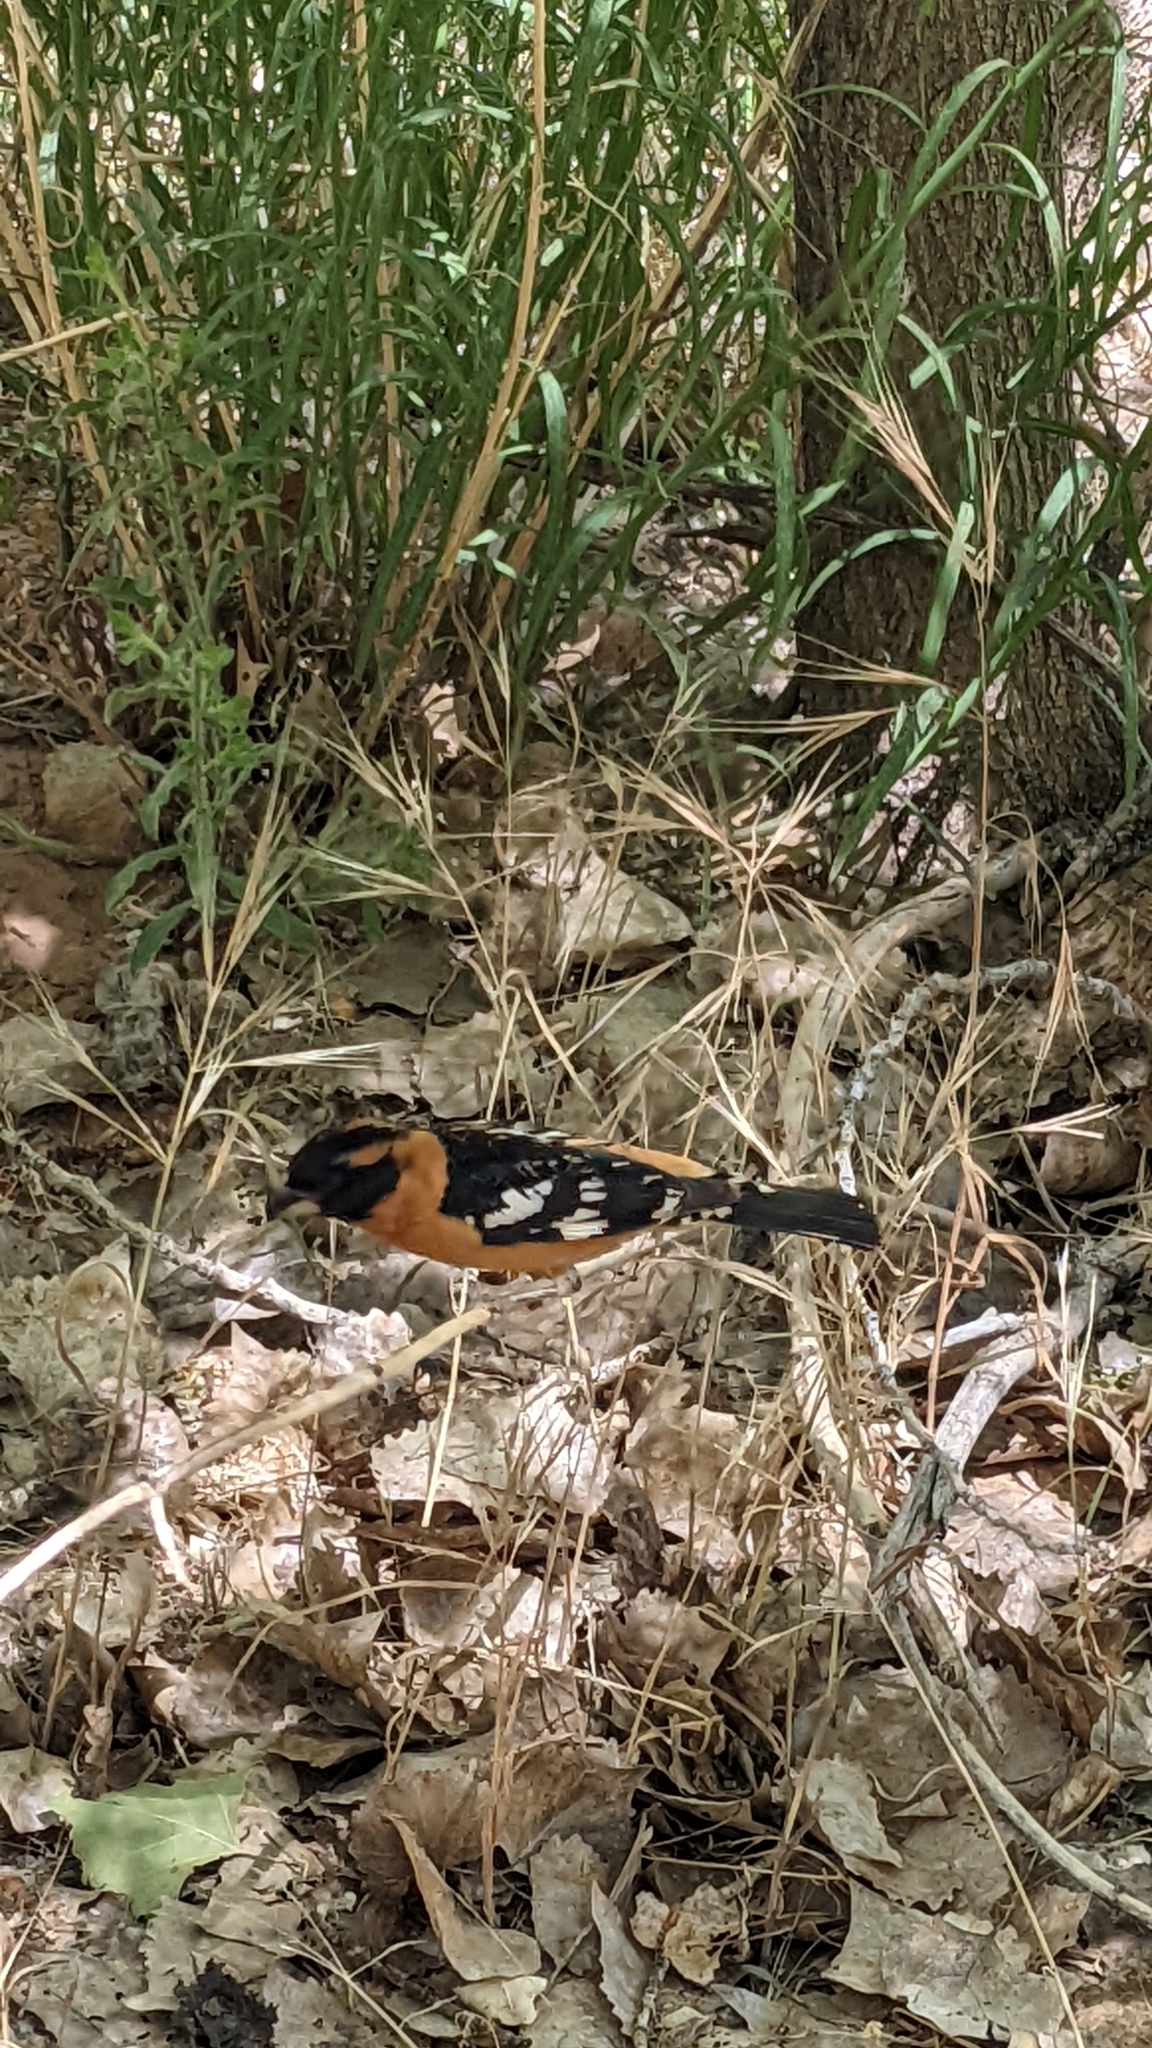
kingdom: Animalia
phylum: Chordata
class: Aves
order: Passeriformes
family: Cardinalidae
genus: Pheucticus
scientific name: Pheucticus melanocephalus
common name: Black-headed grosbeak
